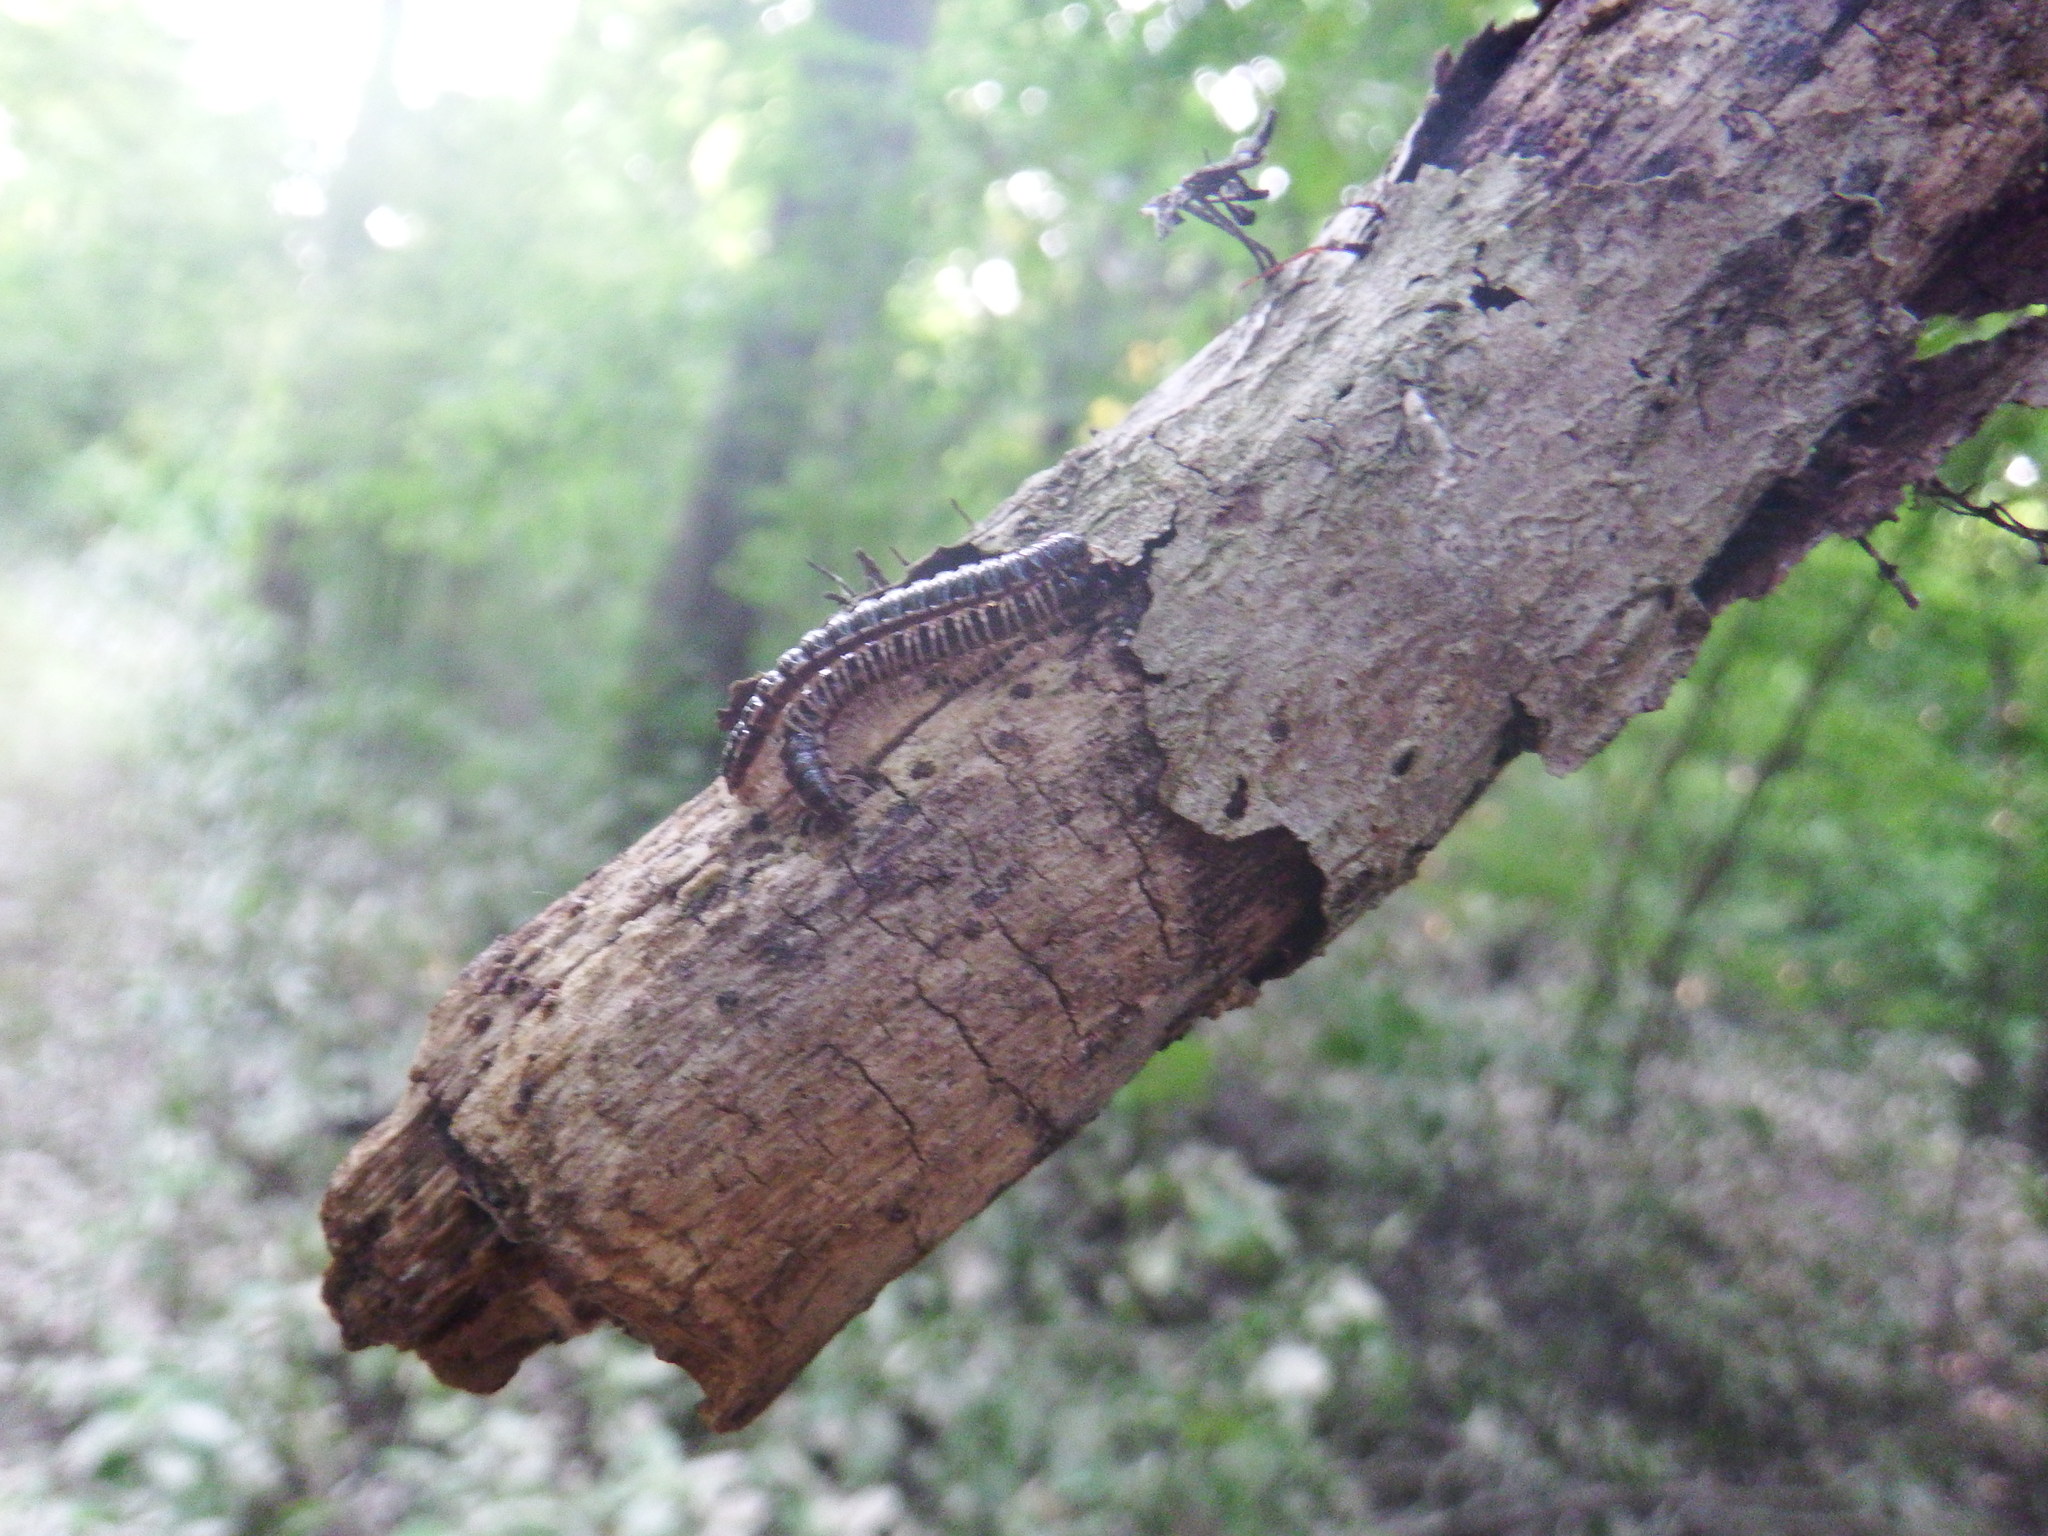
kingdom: Animalia
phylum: Arthropoda
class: Diplopoda
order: Polydesmida
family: Paradoxosomatidae
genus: Oxidus
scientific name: Oxidus gracilis
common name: Greenhouse millipede
